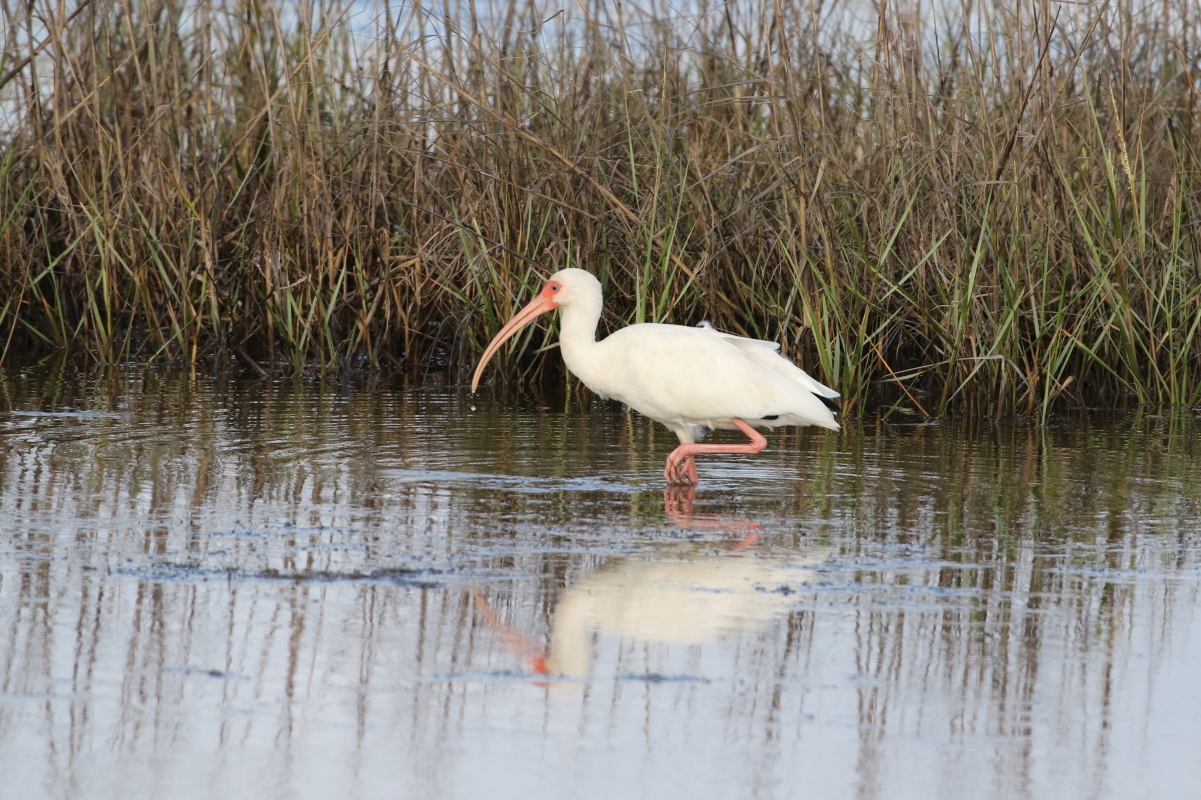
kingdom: Animalia
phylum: Chordata
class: Aves
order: Pelecaniformes
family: Threskiornithidae
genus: Eudocimus
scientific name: Eudocimus albus
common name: White ibis
